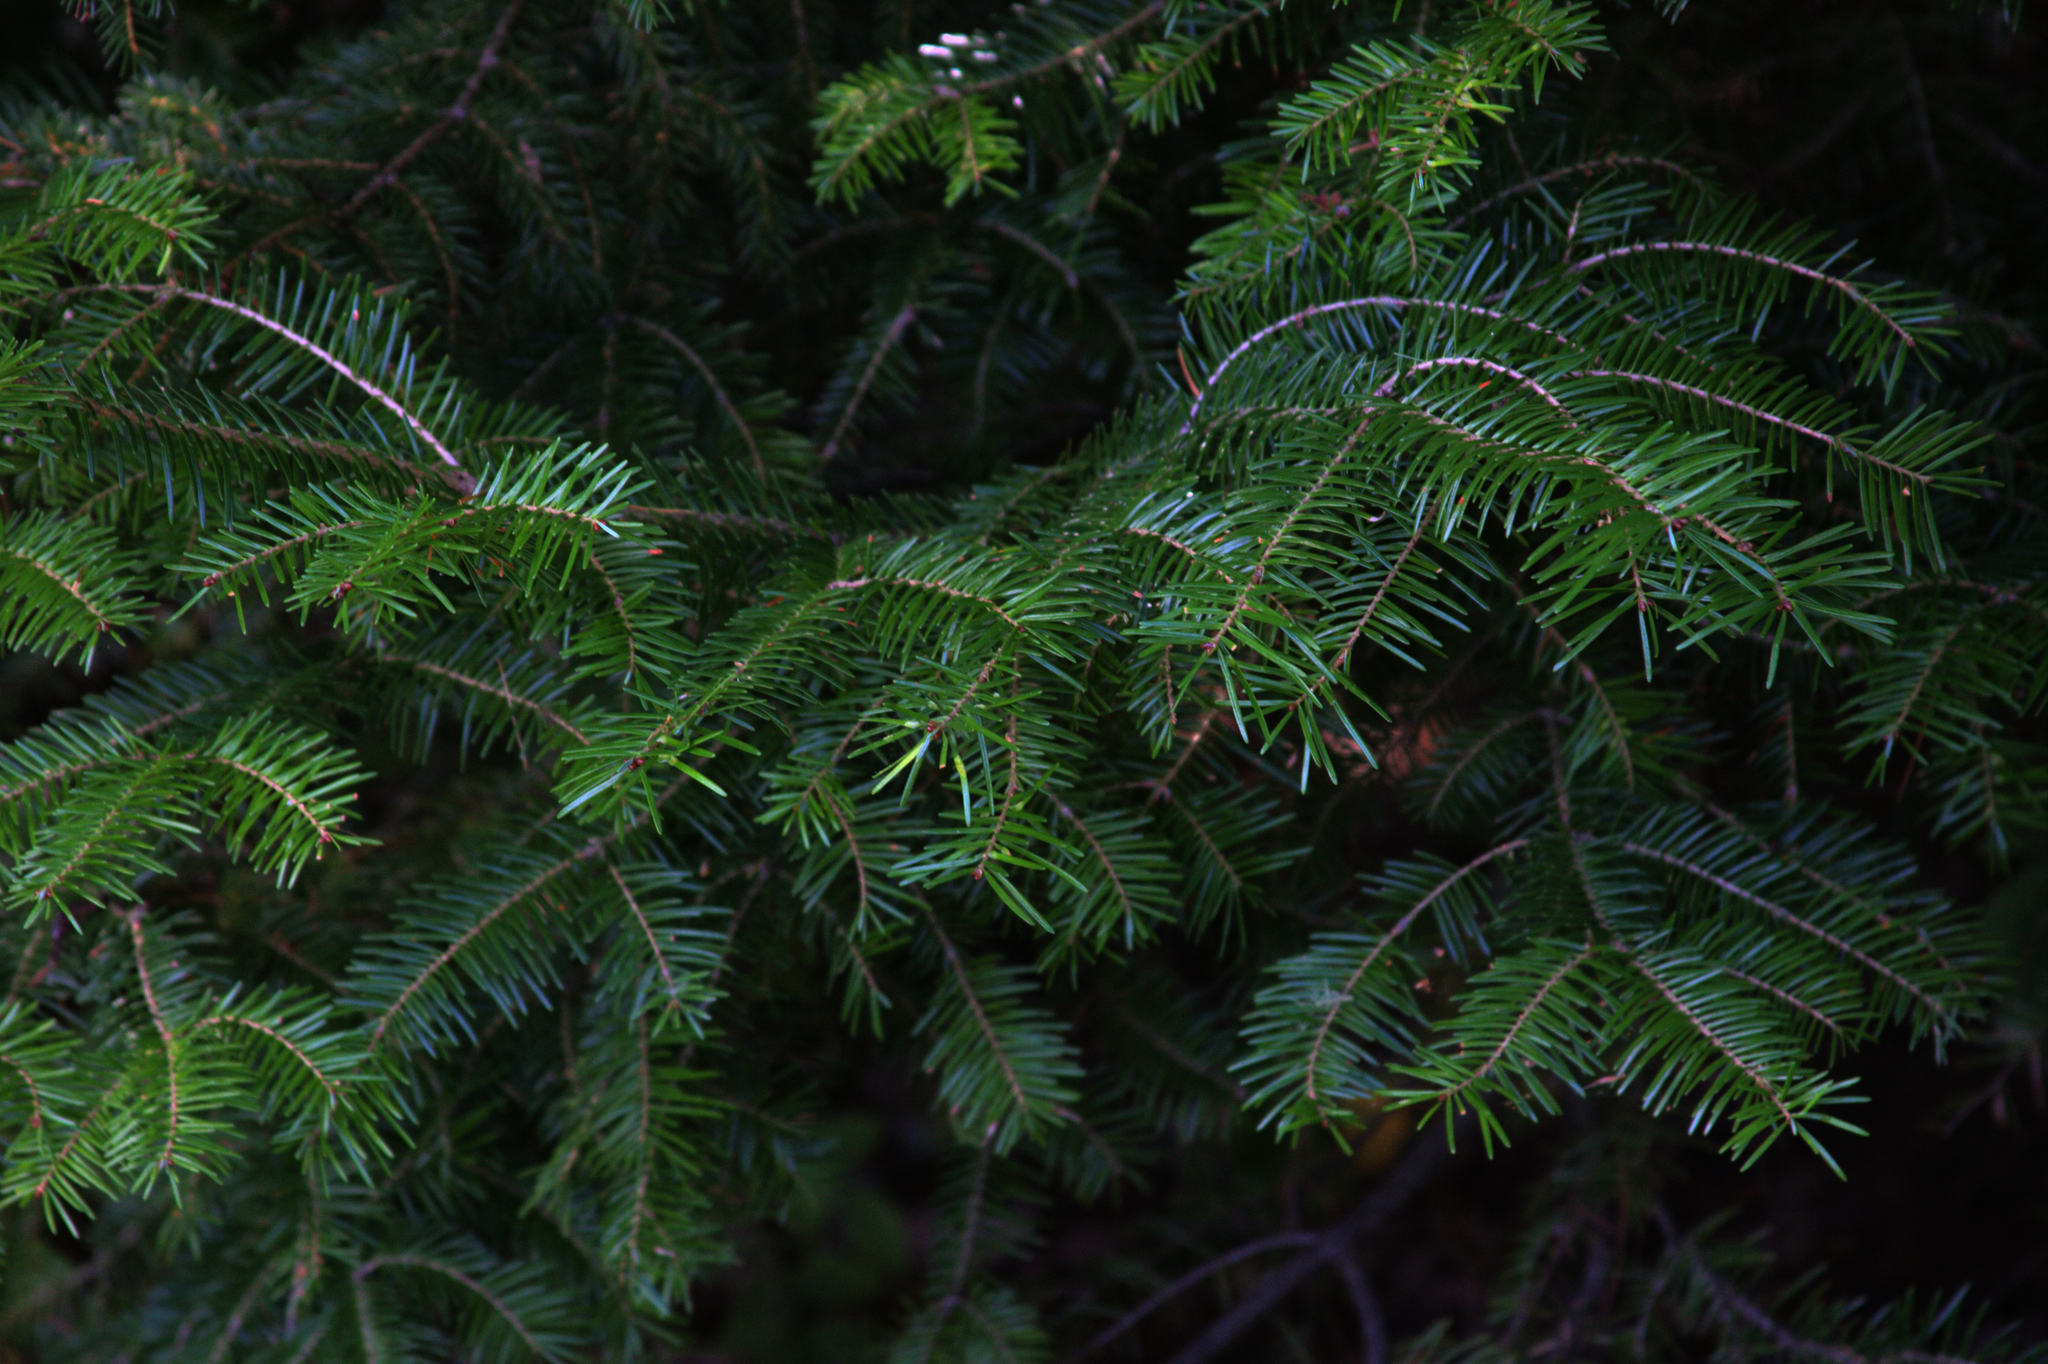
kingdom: Plantae
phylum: Tracheophyta
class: Pinopsida
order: Pinales
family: Pinaceae
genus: Abies
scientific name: Abies balsamea
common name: Balsam fir
